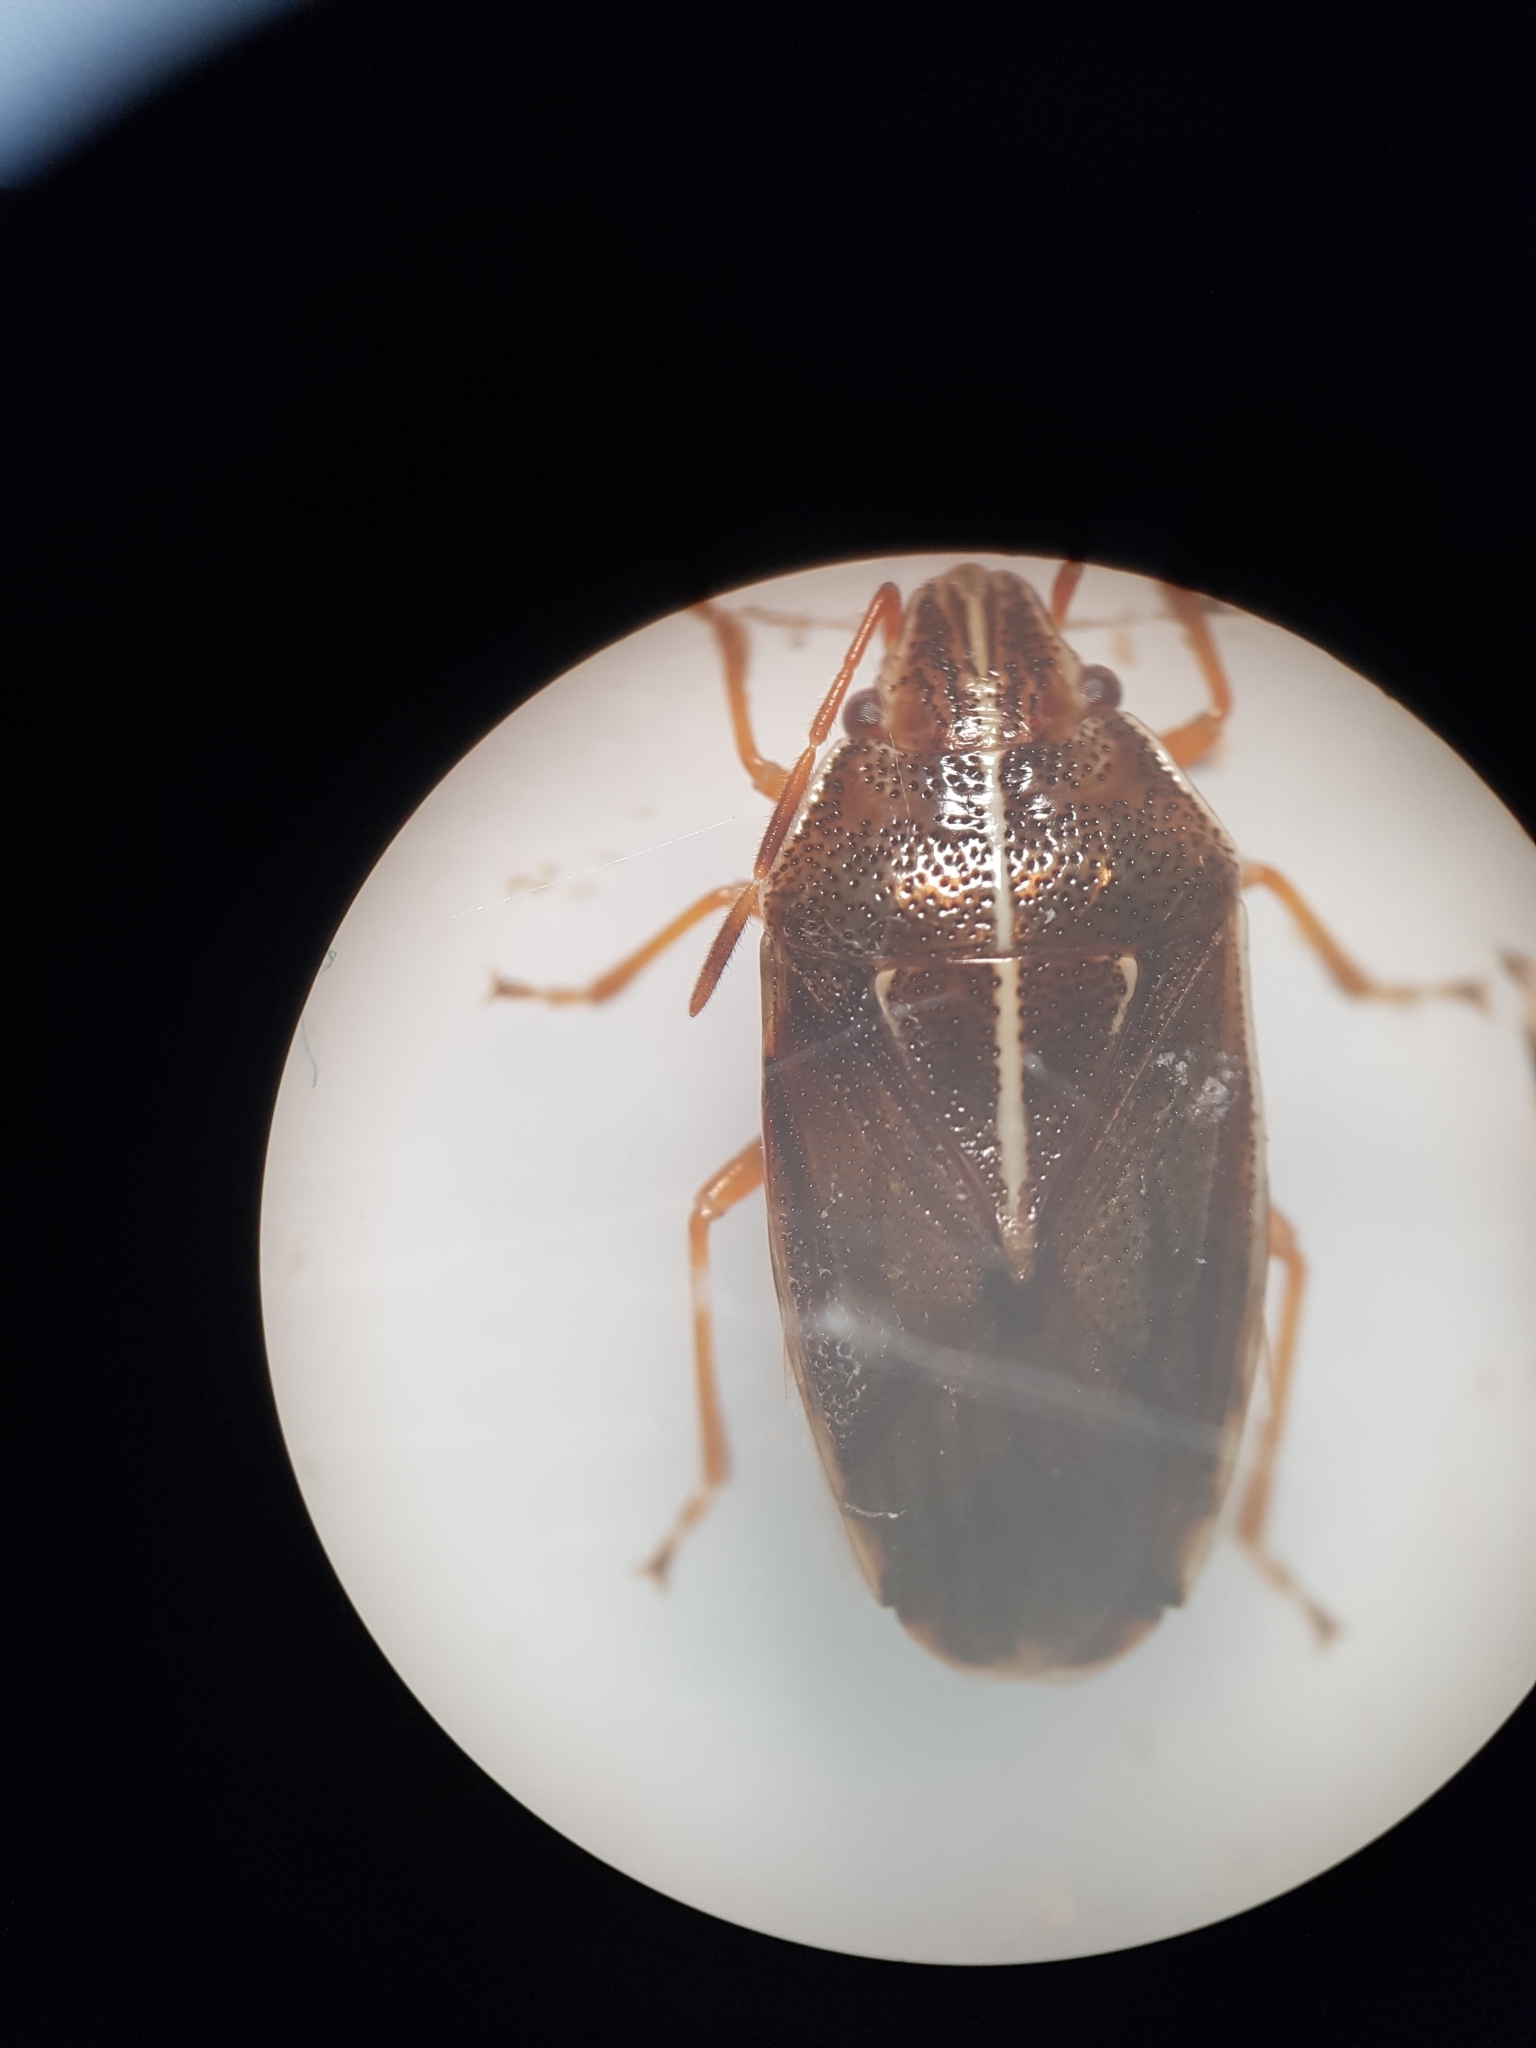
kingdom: Animalia
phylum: Arthropoda
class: Insecta
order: Hemiptera
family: Acanthosomatidae
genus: Rhopalimorpha
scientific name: Rhopalimorpha lineolaris
